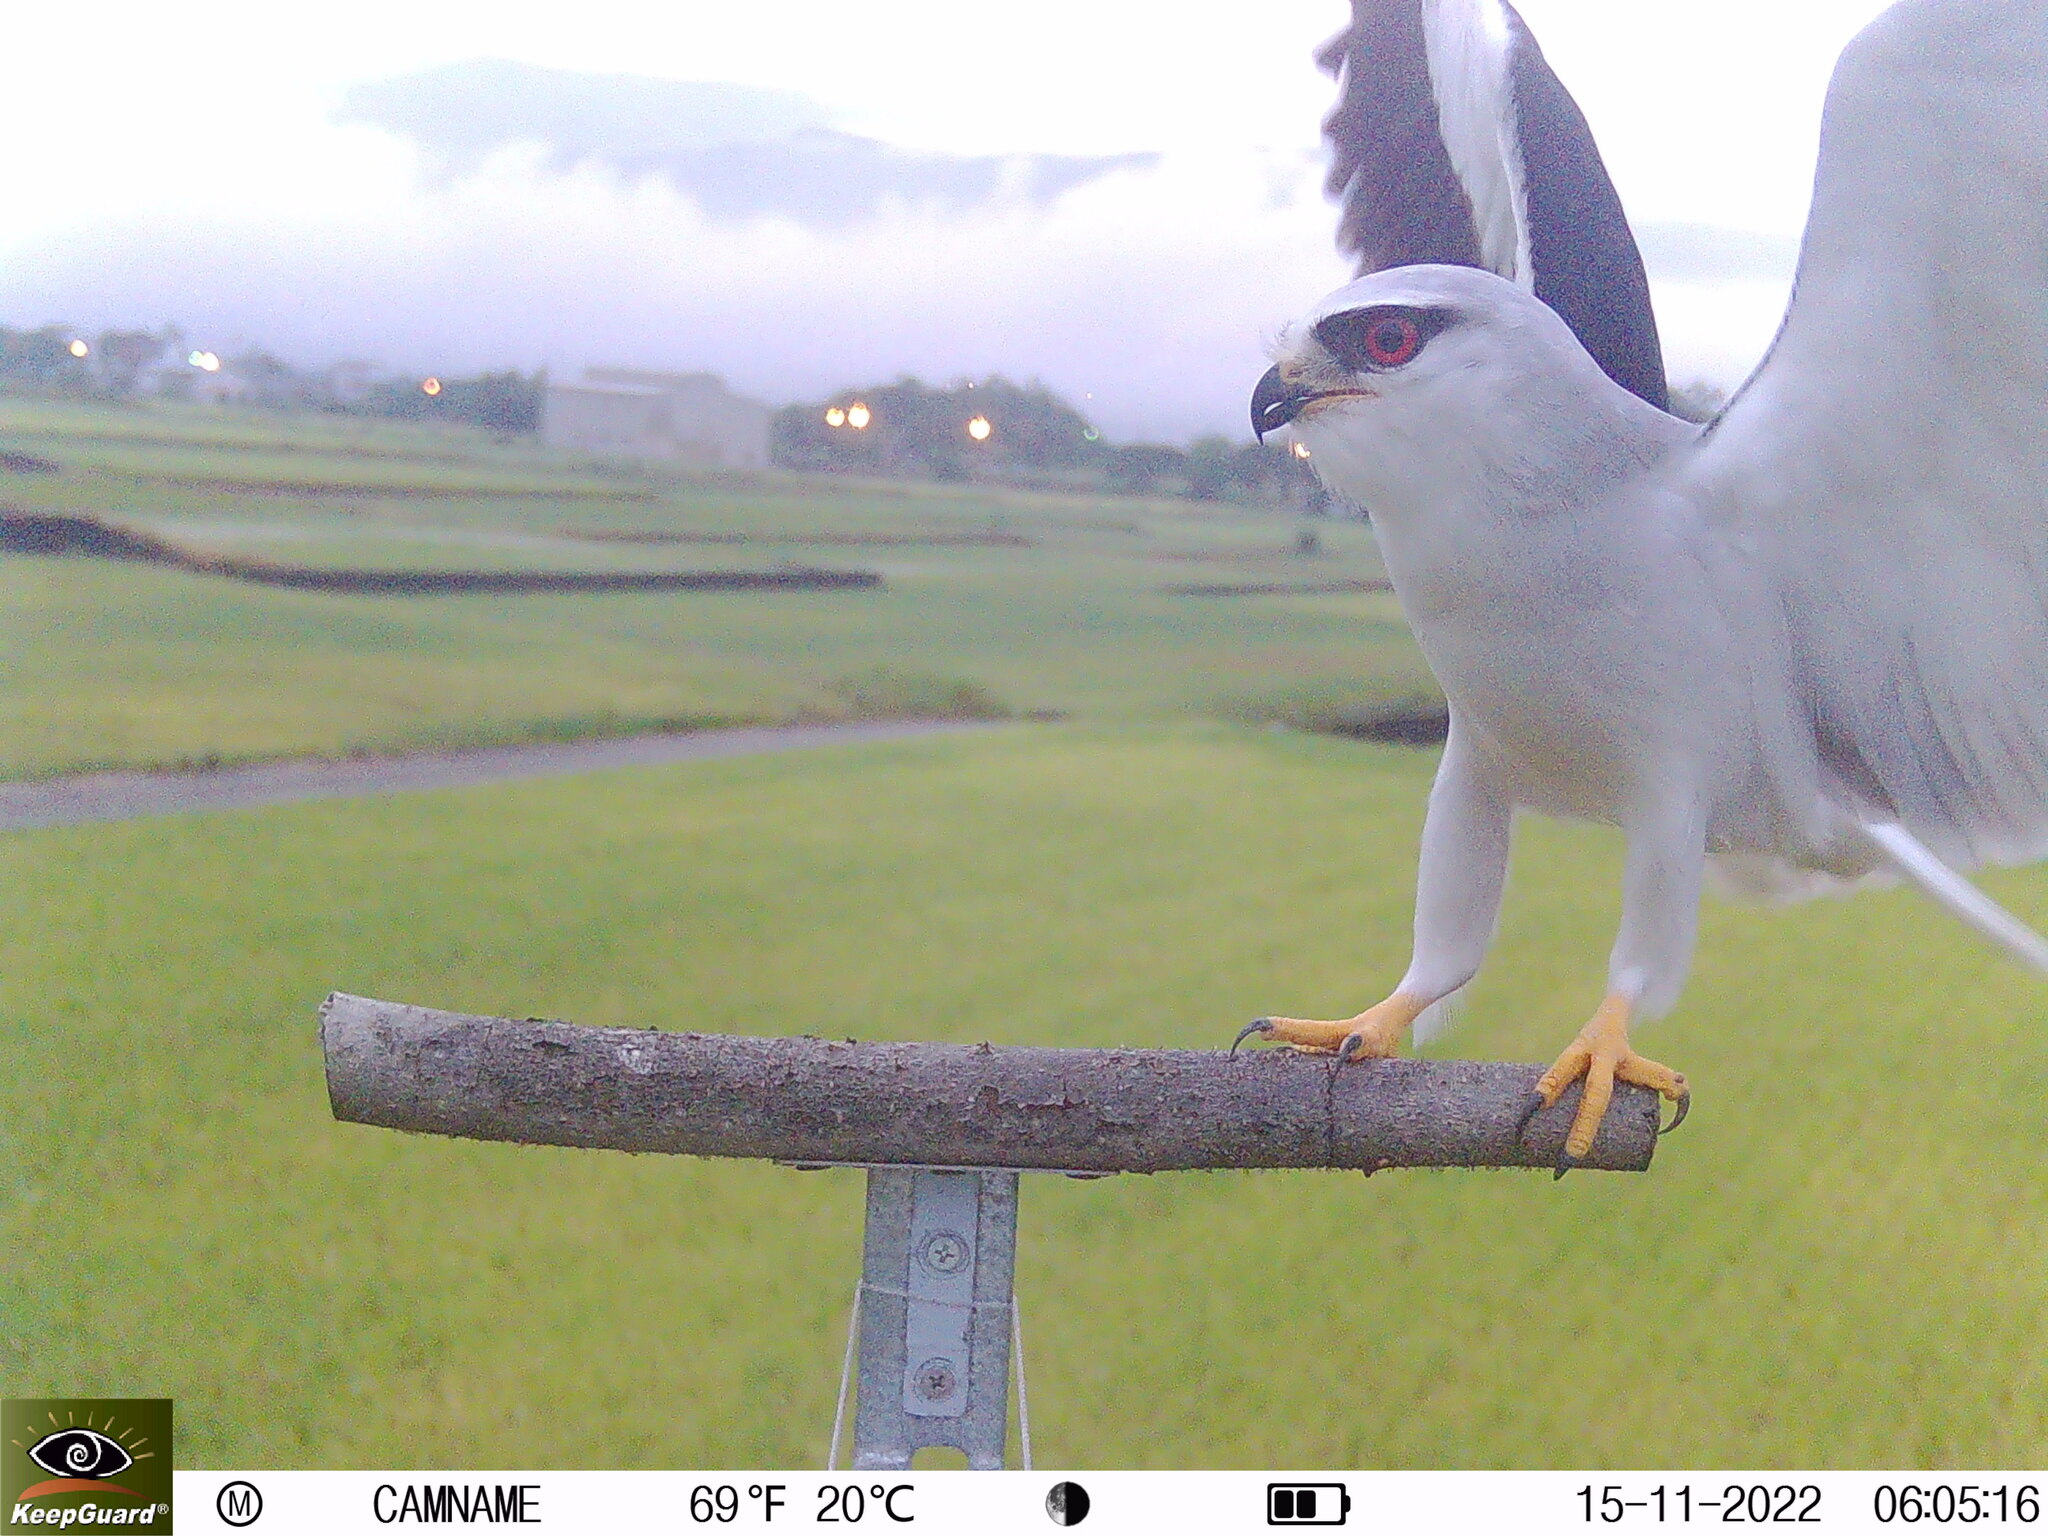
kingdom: Animalia
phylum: Chordata
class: Aves
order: Accipitriformes
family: Accipitridae
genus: Elanus
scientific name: Elanus caeruleus
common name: Black-winged kite
